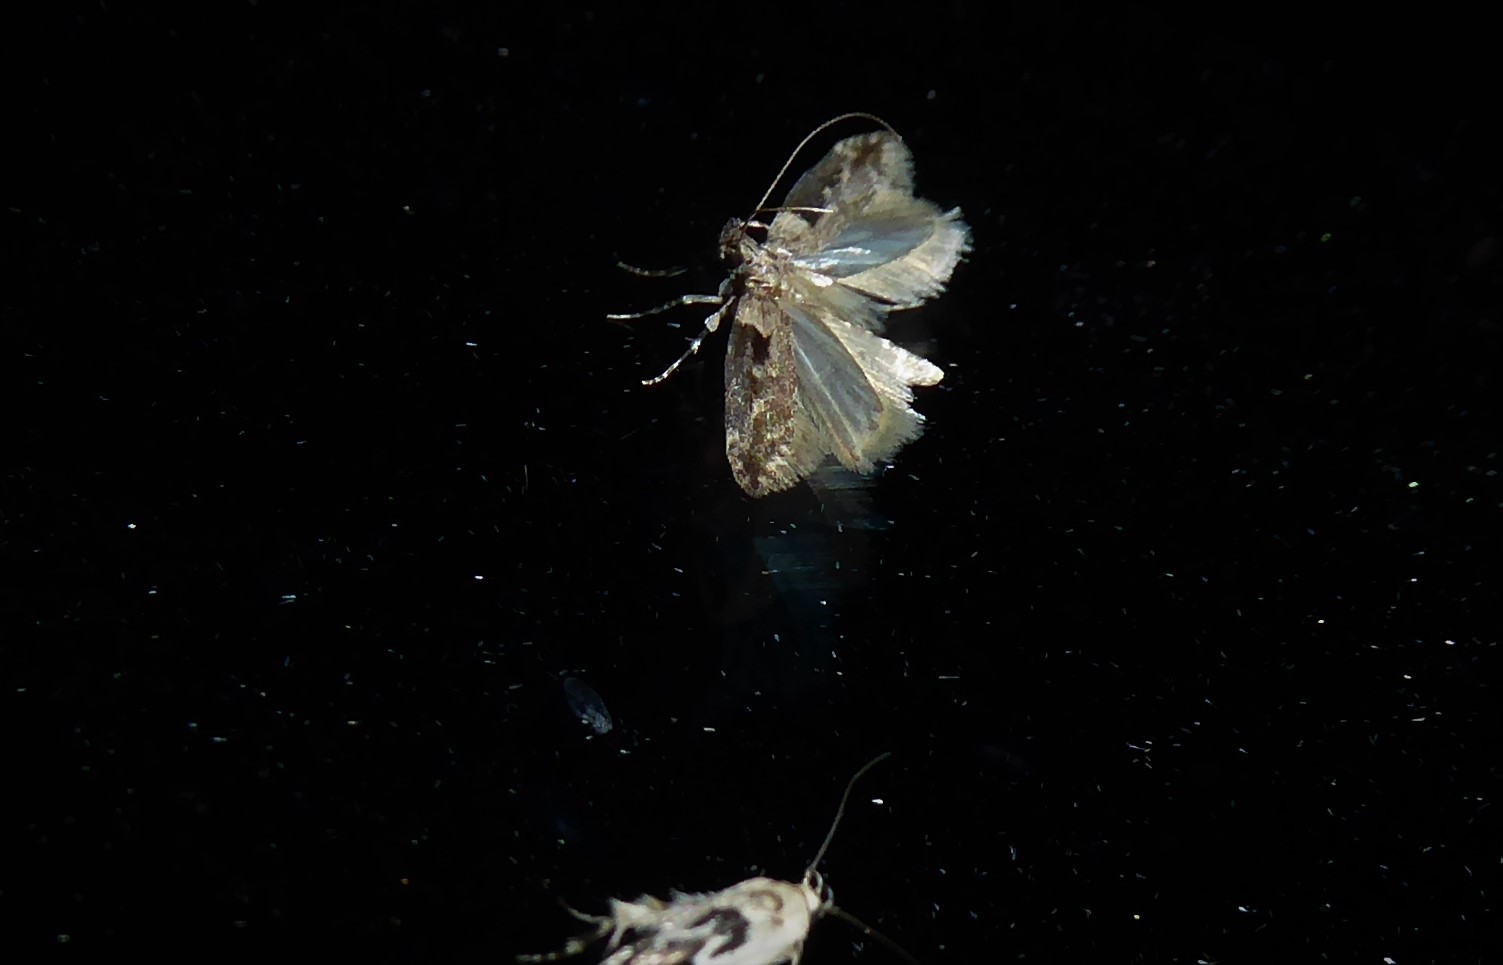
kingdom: Animalia
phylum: Arthropoda
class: Insecta
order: Lepidoptera
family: Gelechiidae
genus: Symmetrischema
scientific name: Symmetrischema tangolias
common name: Moth
